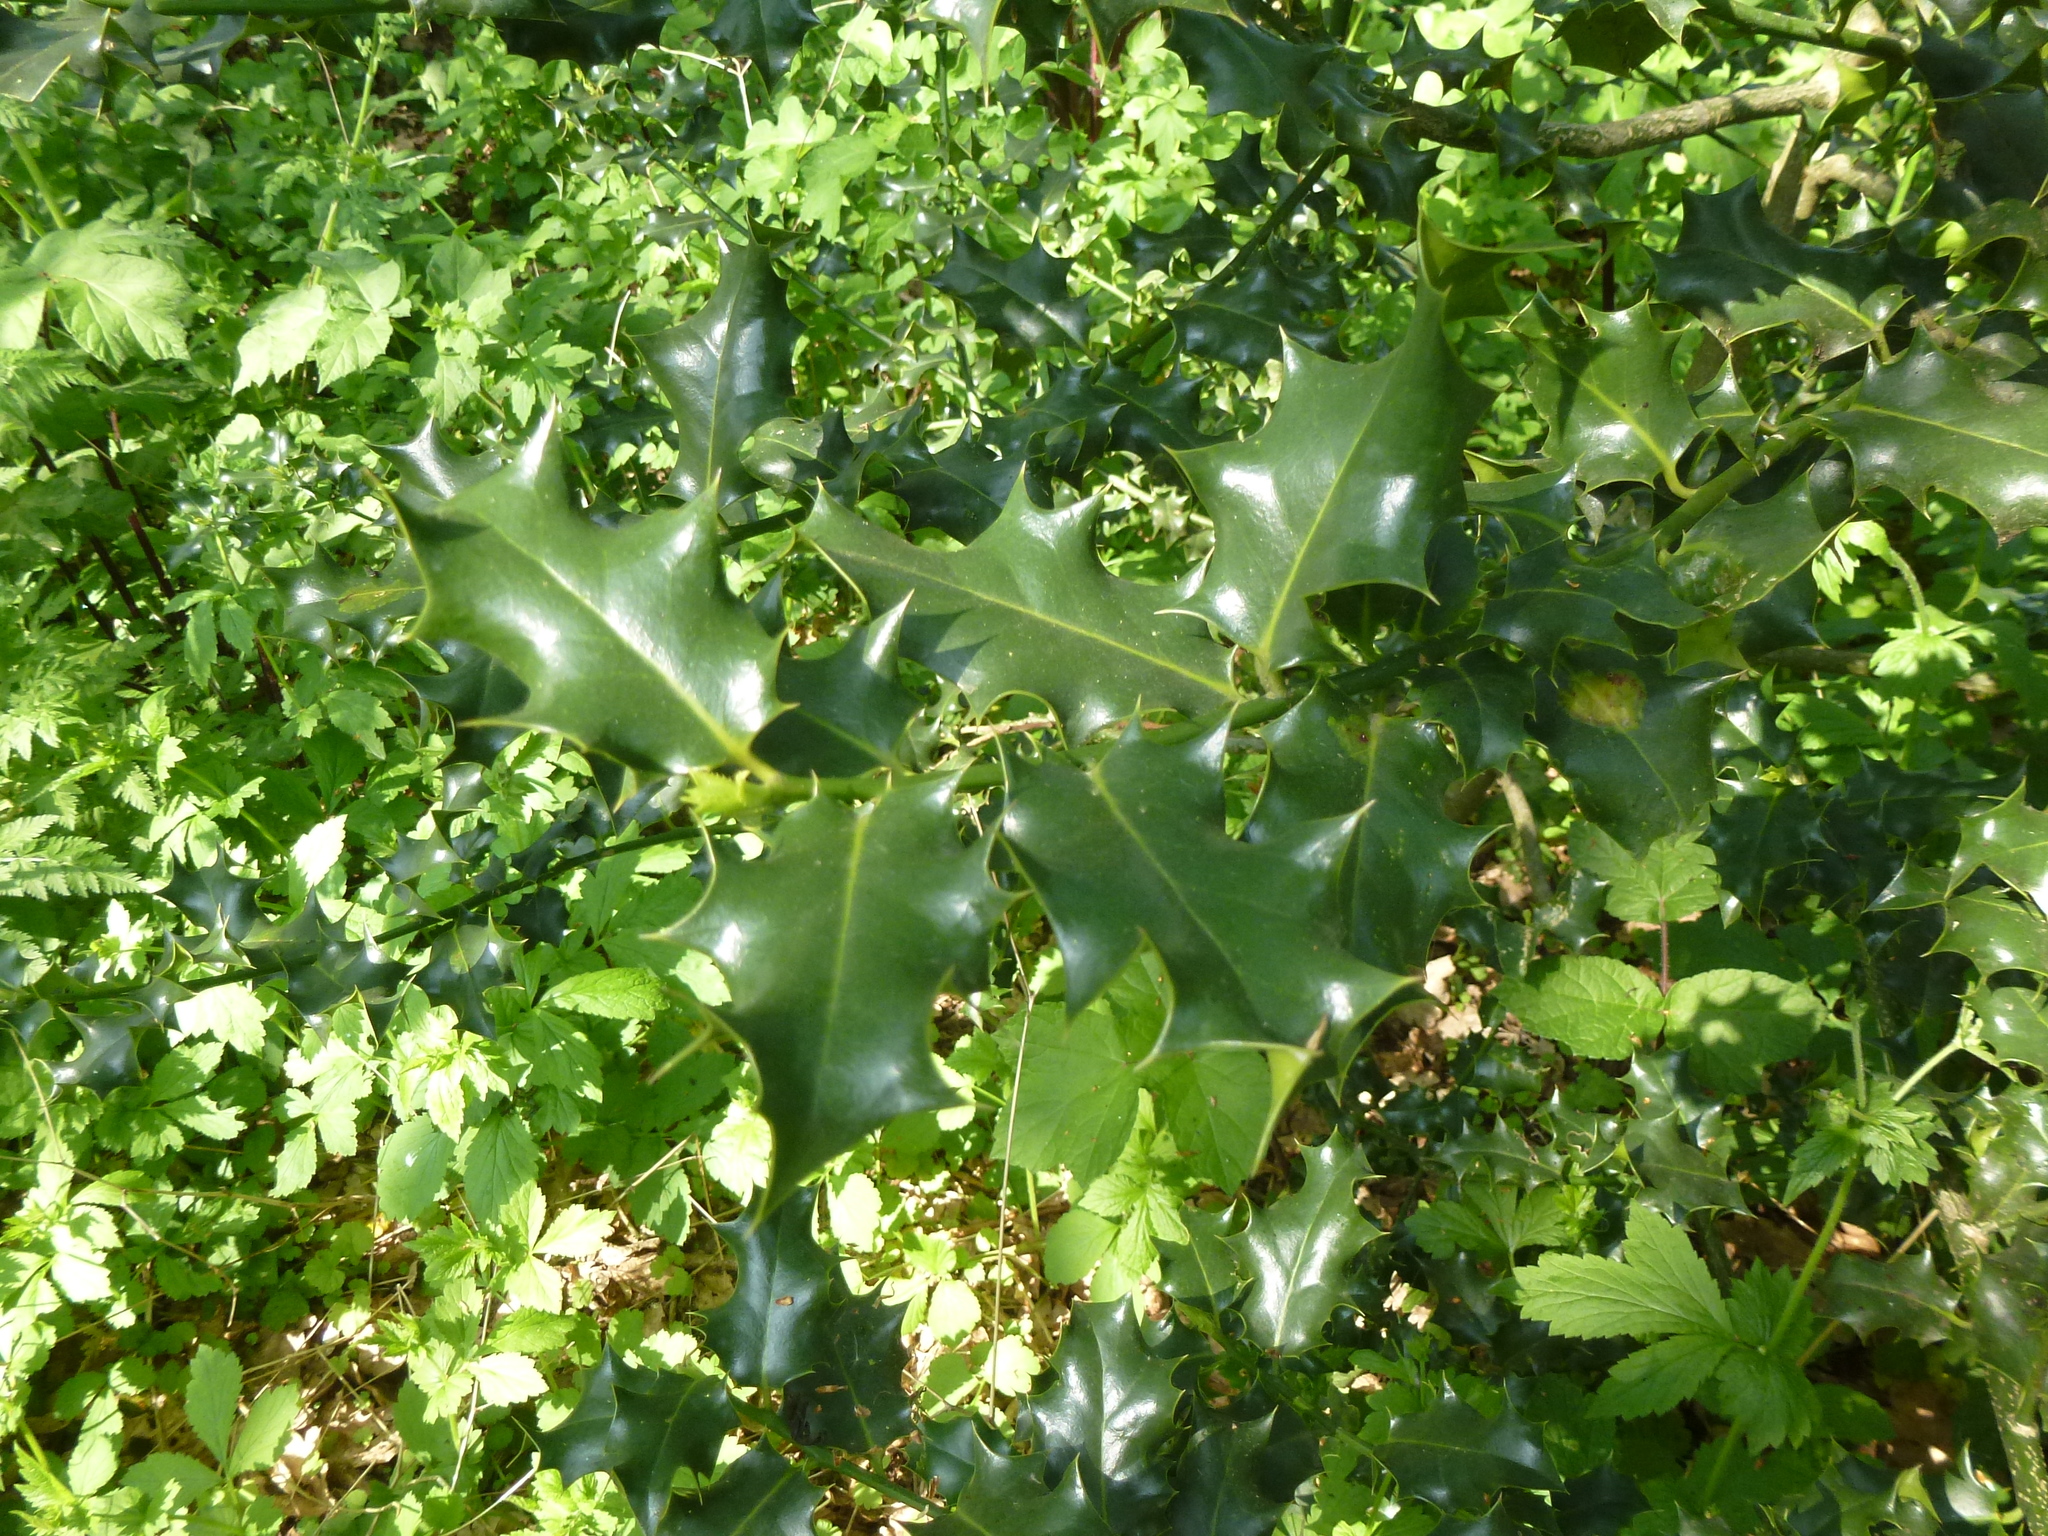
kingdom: Plantae
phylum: Tracheophyta
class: Magnoliopsida
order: Aquifoliales
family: Aquifoliaceae
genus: Ilex
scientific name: Ilex aquifolium
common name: English holly
